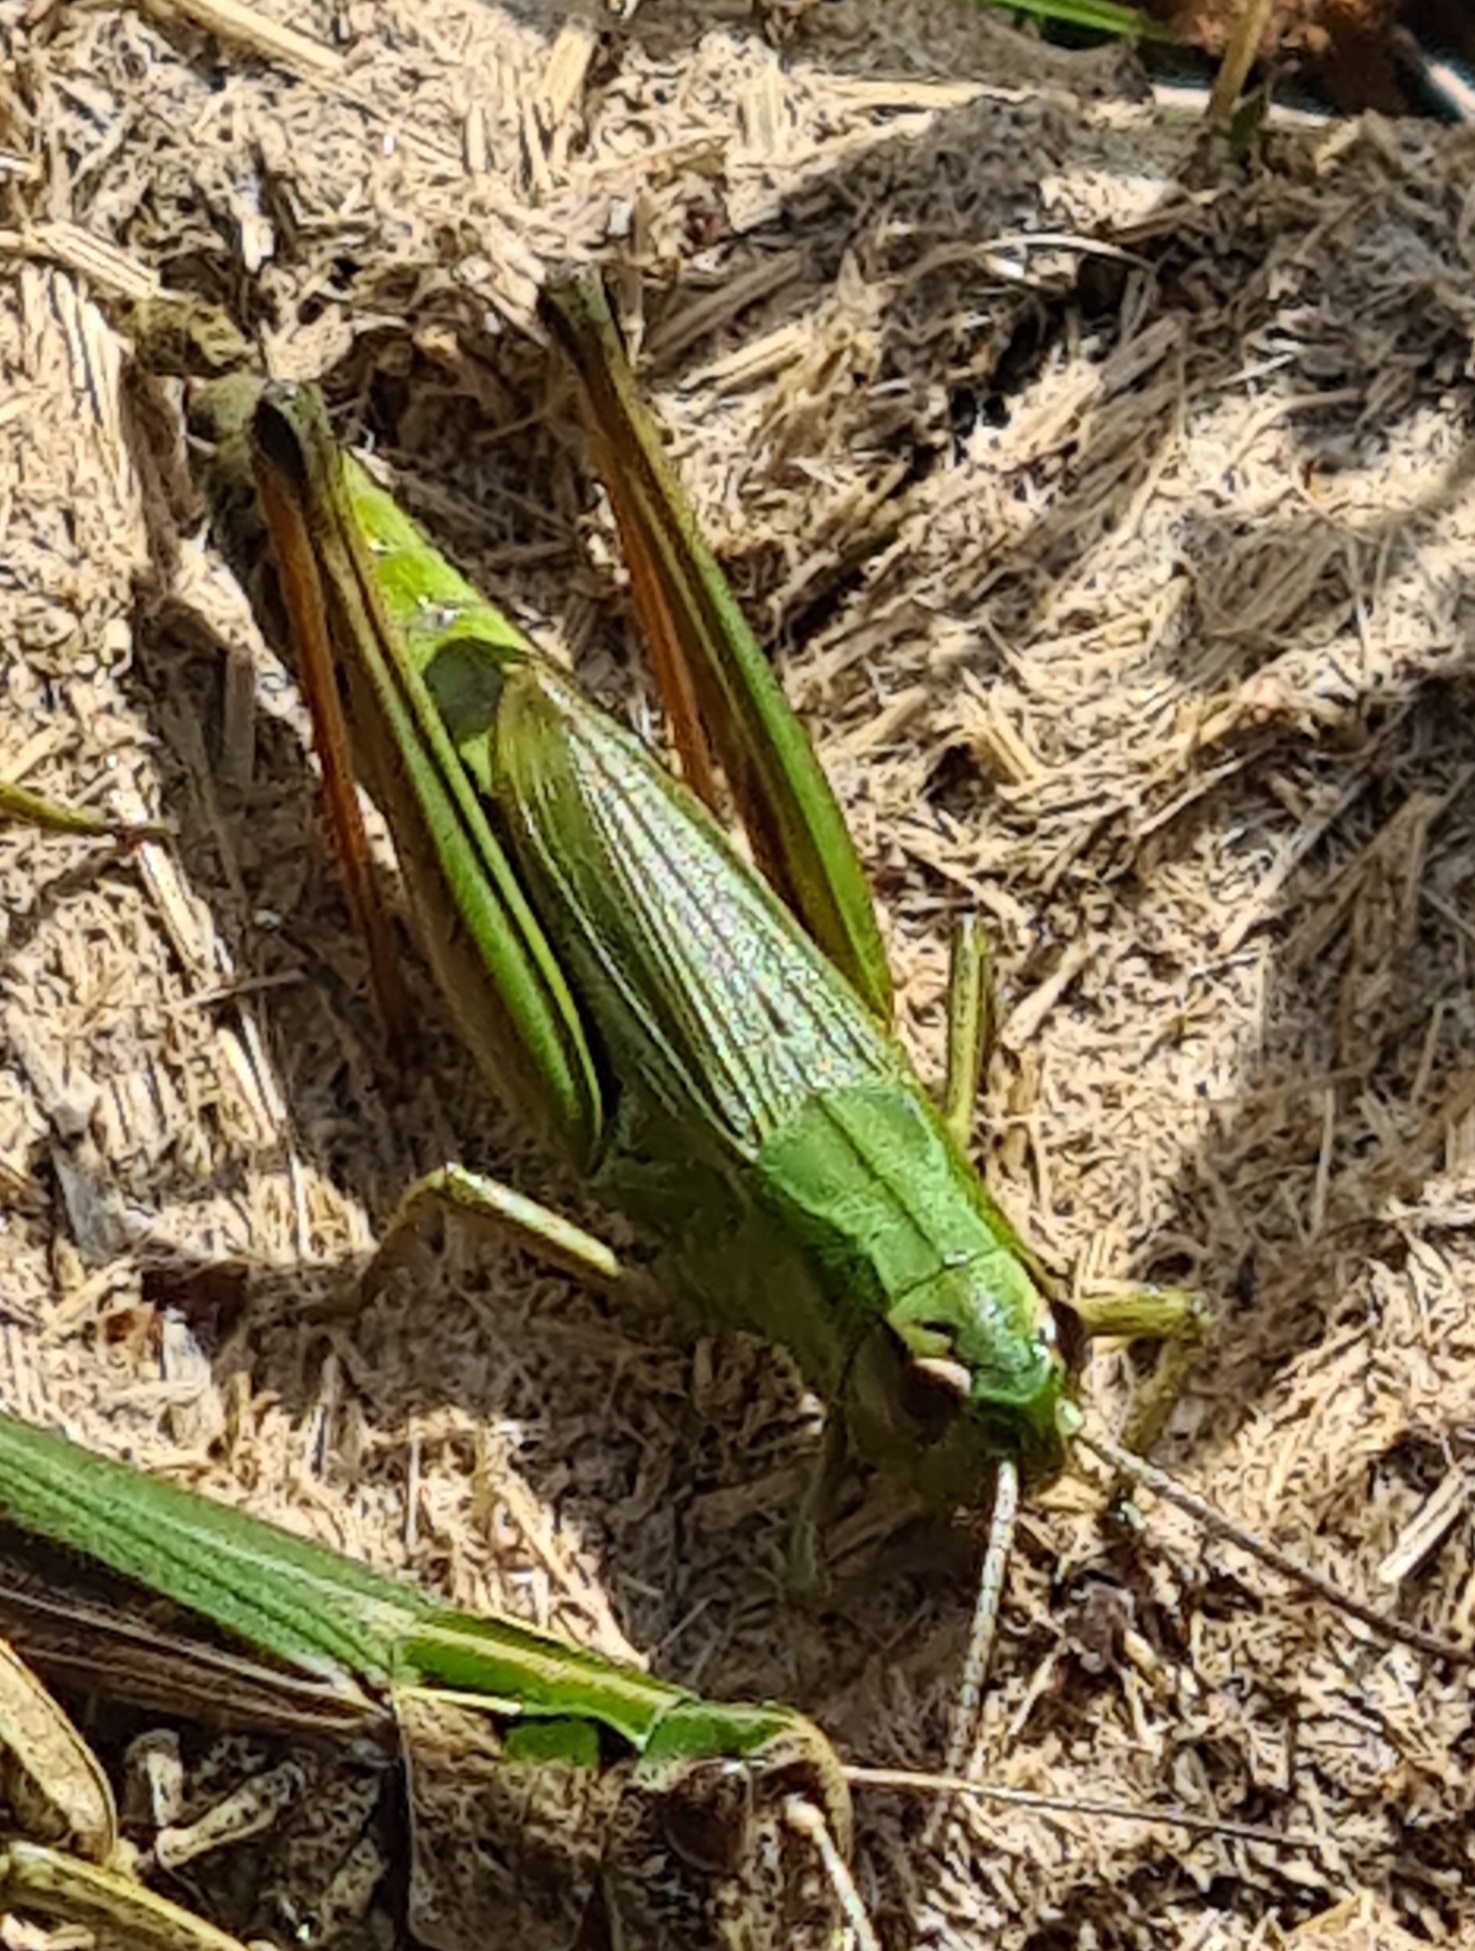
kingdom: Animalia
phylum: Arthropoda
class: Insecta
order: Orthoptera
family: Acrididae
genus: Pseudochorthippus
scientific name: Pseudochorthippus parallelus
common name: Meadow grasshopper
